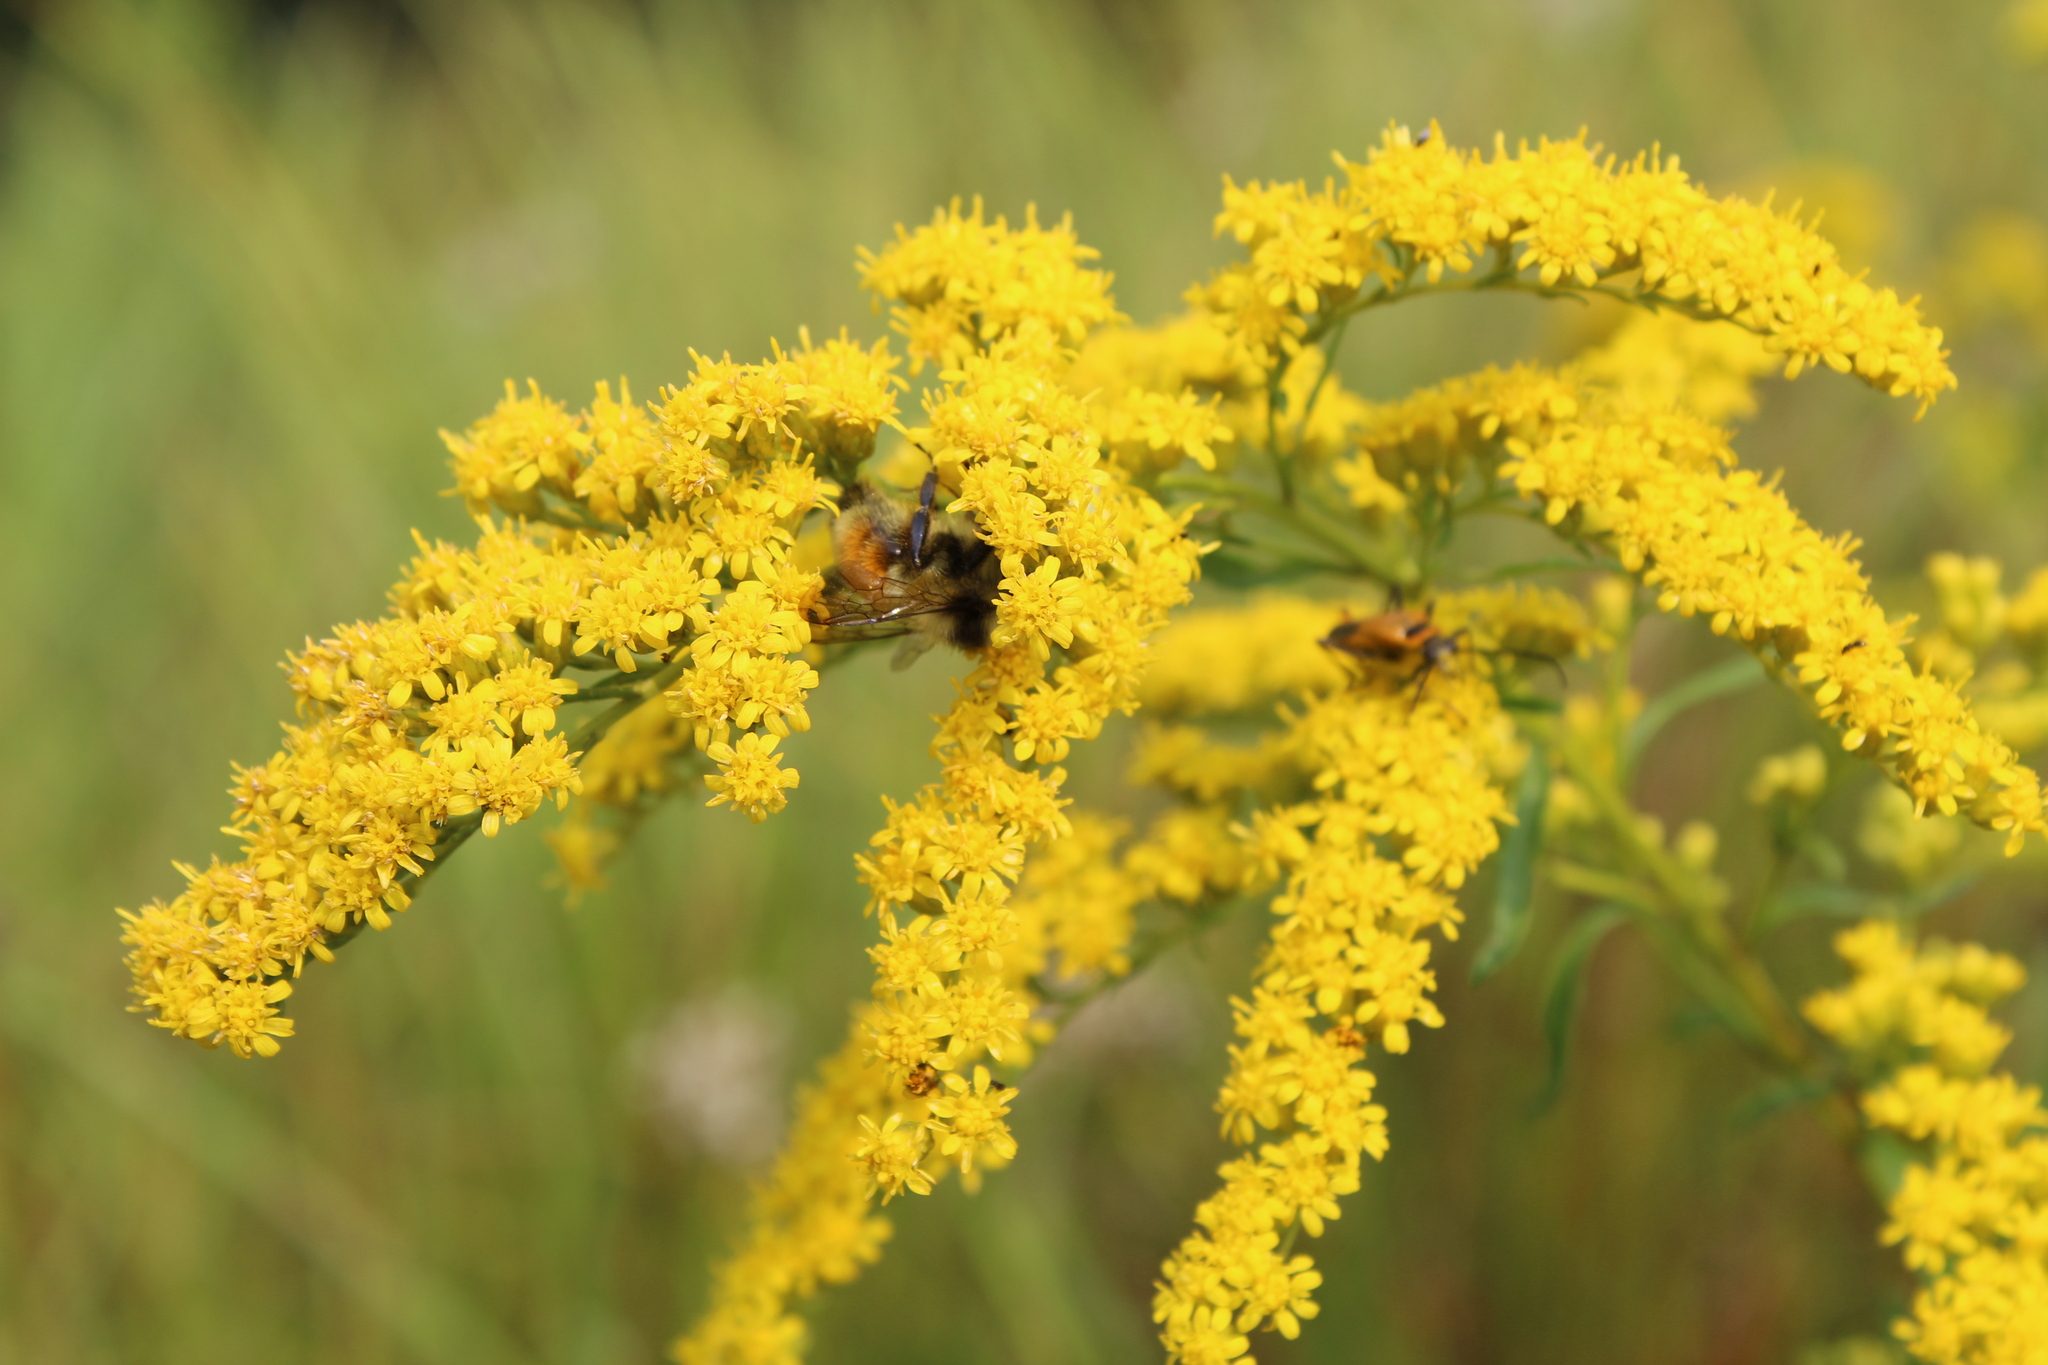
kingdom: Animalia
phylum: Arthropoda
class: Insecta
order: Hymenoptera
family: Apidae
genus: Bombus
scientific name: Bombus ternarius
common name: Tri-colored bumble bee
